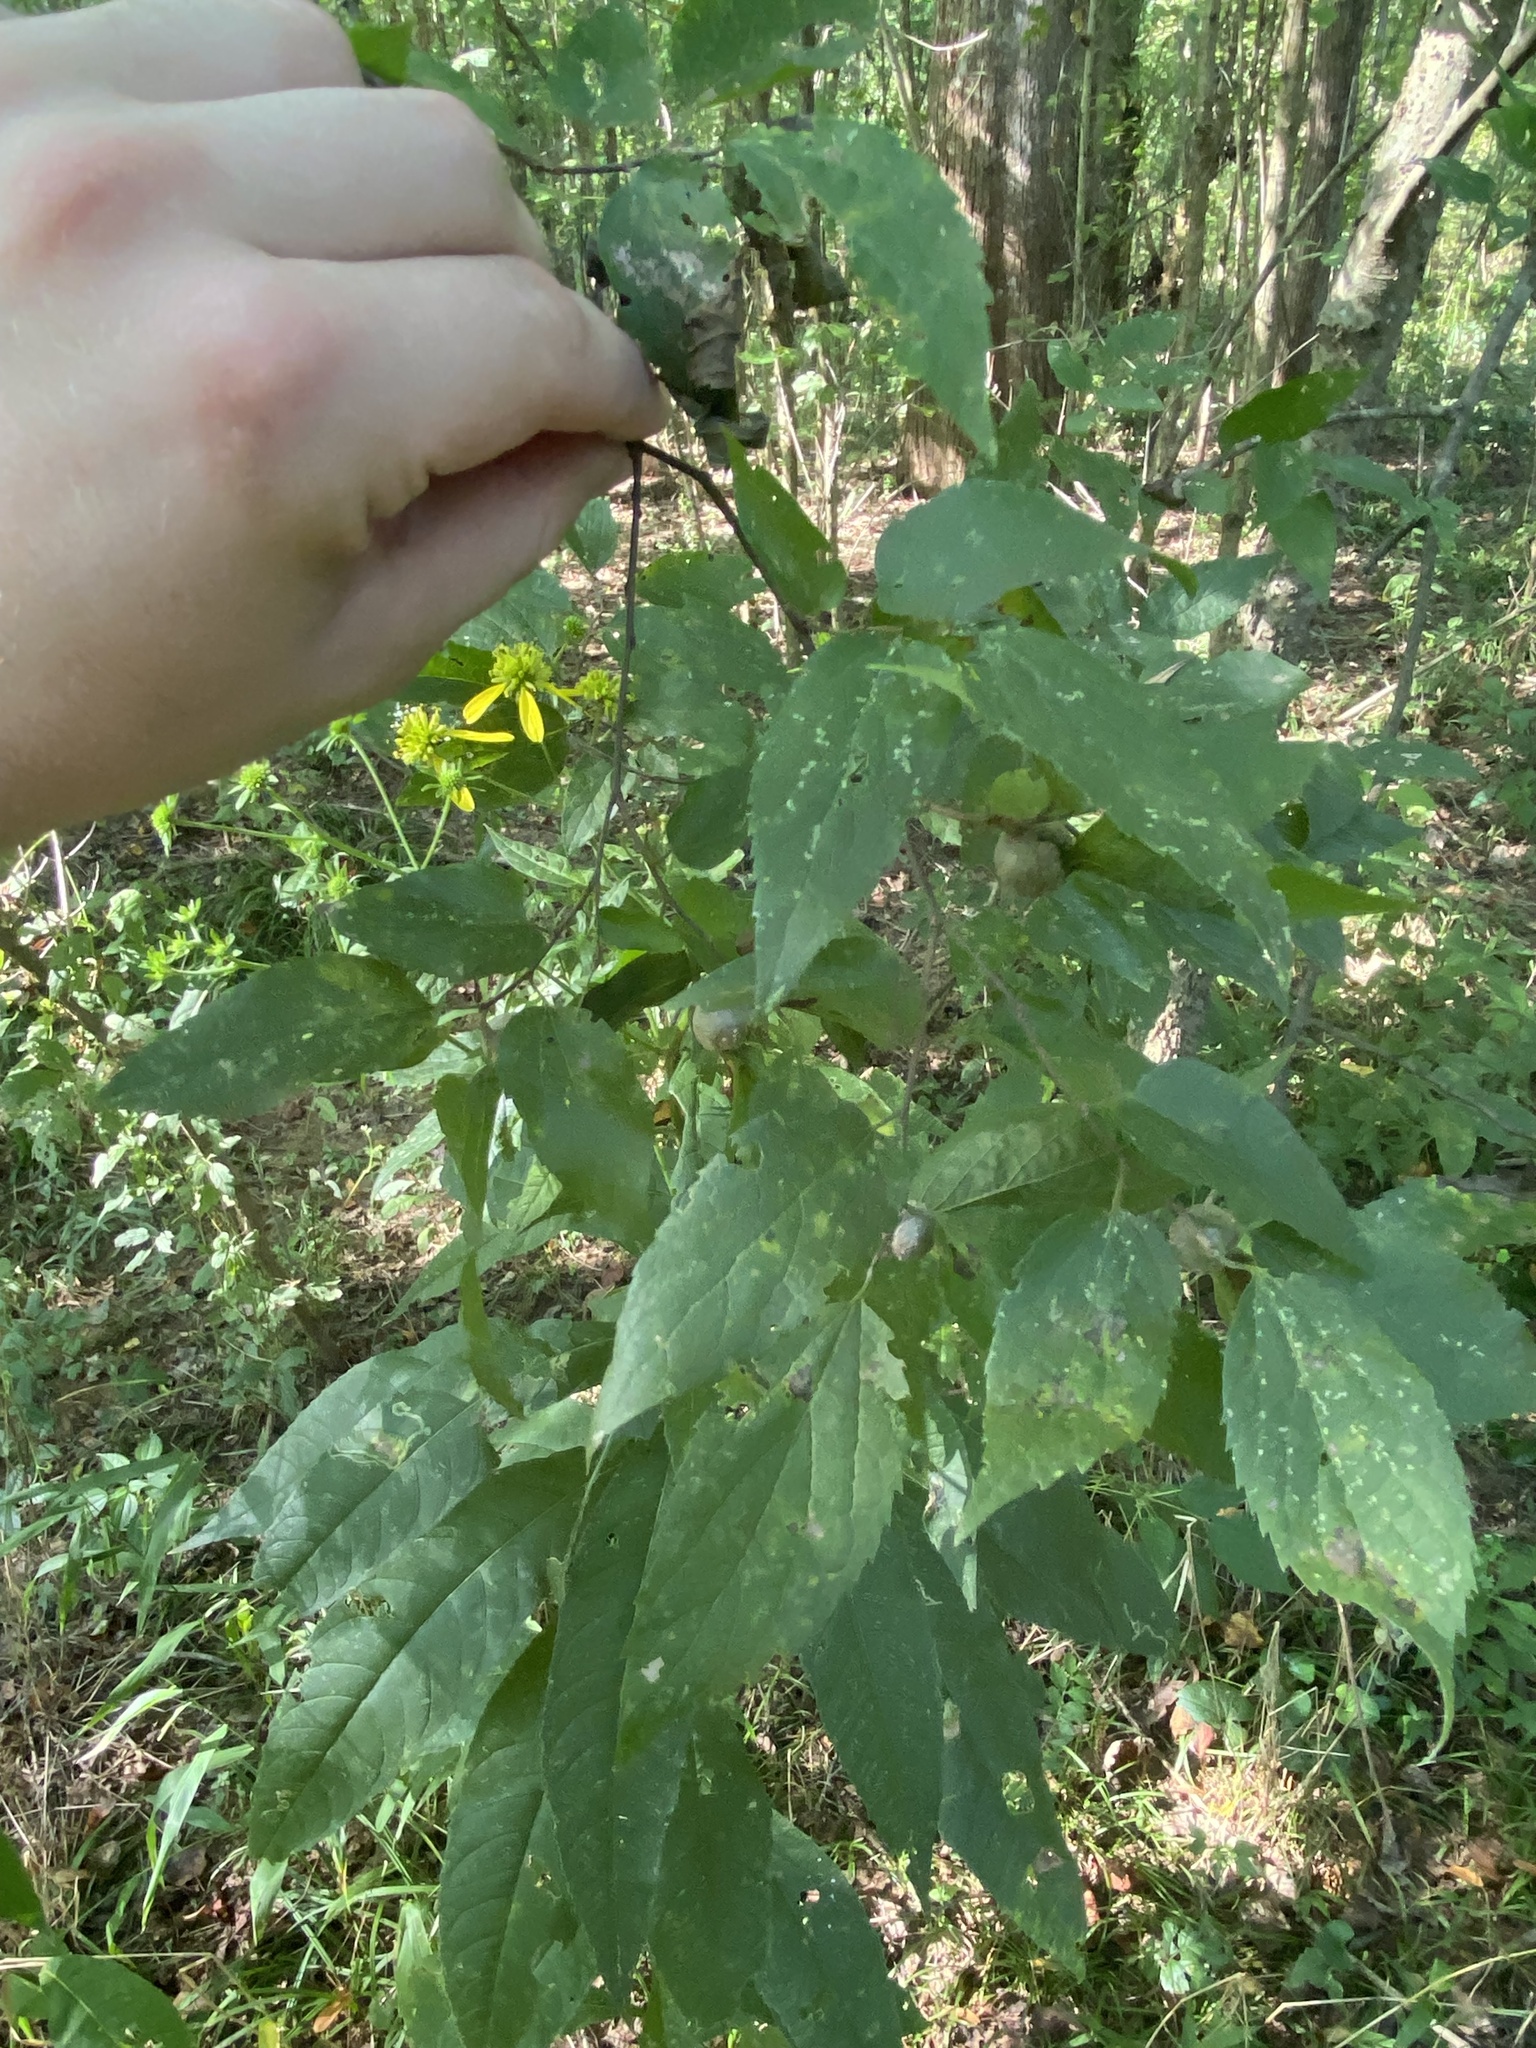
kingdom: Animalia
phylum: Arthropoda
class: Insecta
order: Hemiptera
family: Aphalaridae
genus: Pachypsylla
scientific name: Pachypsylla venusta
